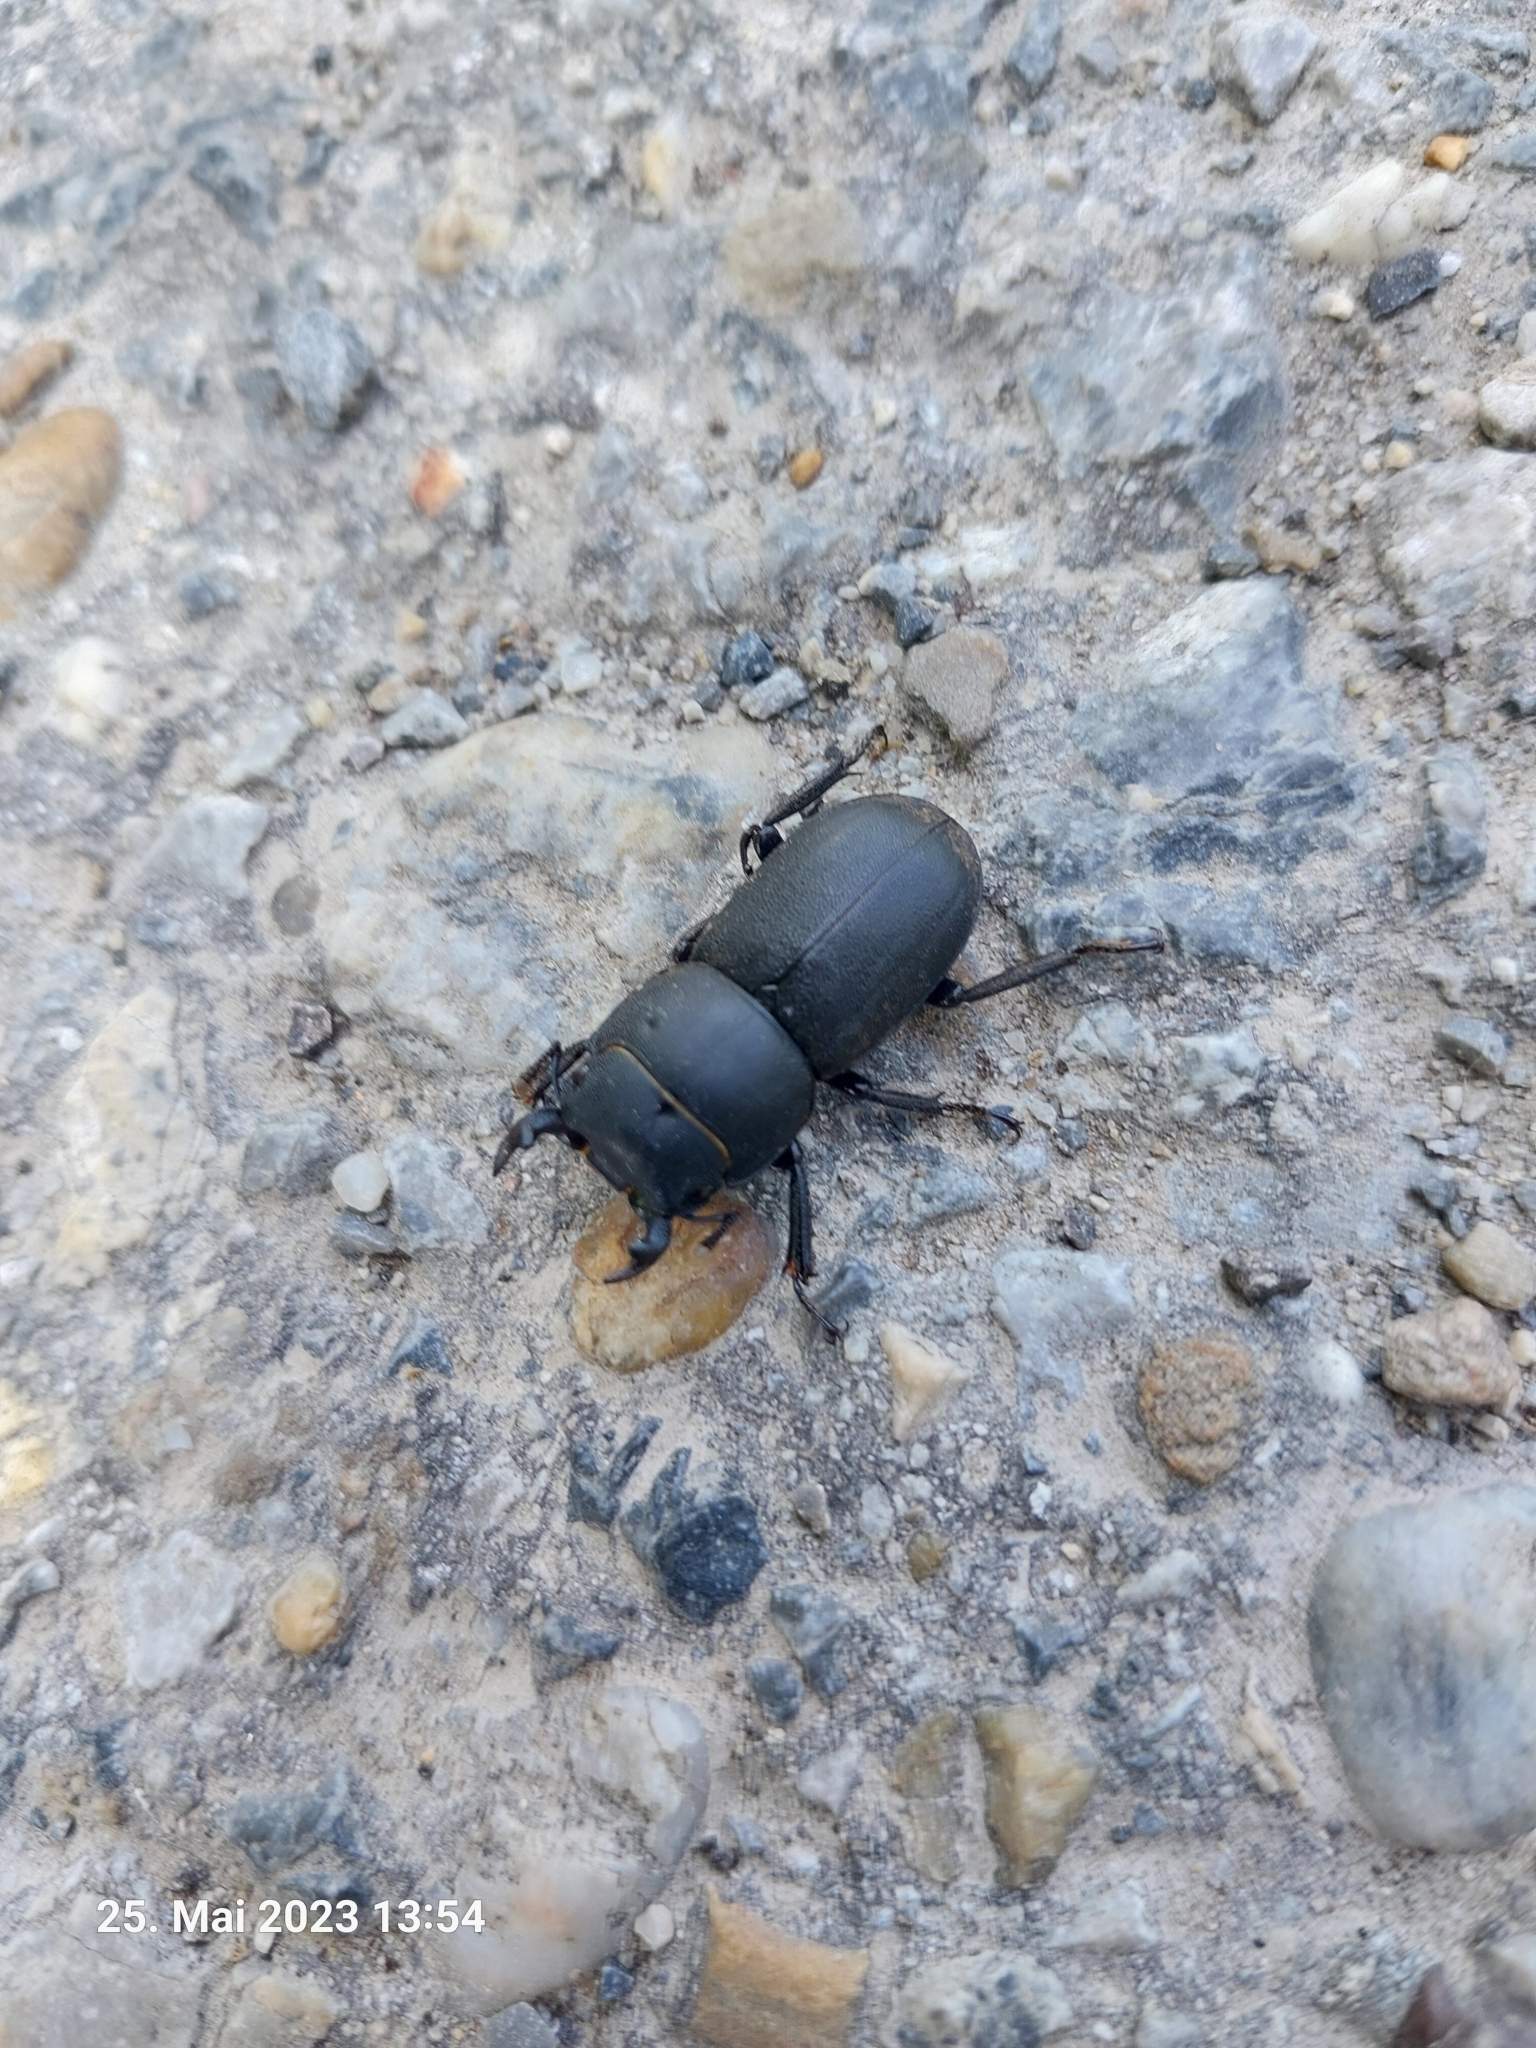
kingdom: Animalia
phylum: Arthropoda
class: Insecta
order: Coleoptera
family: Lucanidae
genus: Dorcus
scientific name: Dorcus parallelipipedus
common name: Lesser stag beetle
